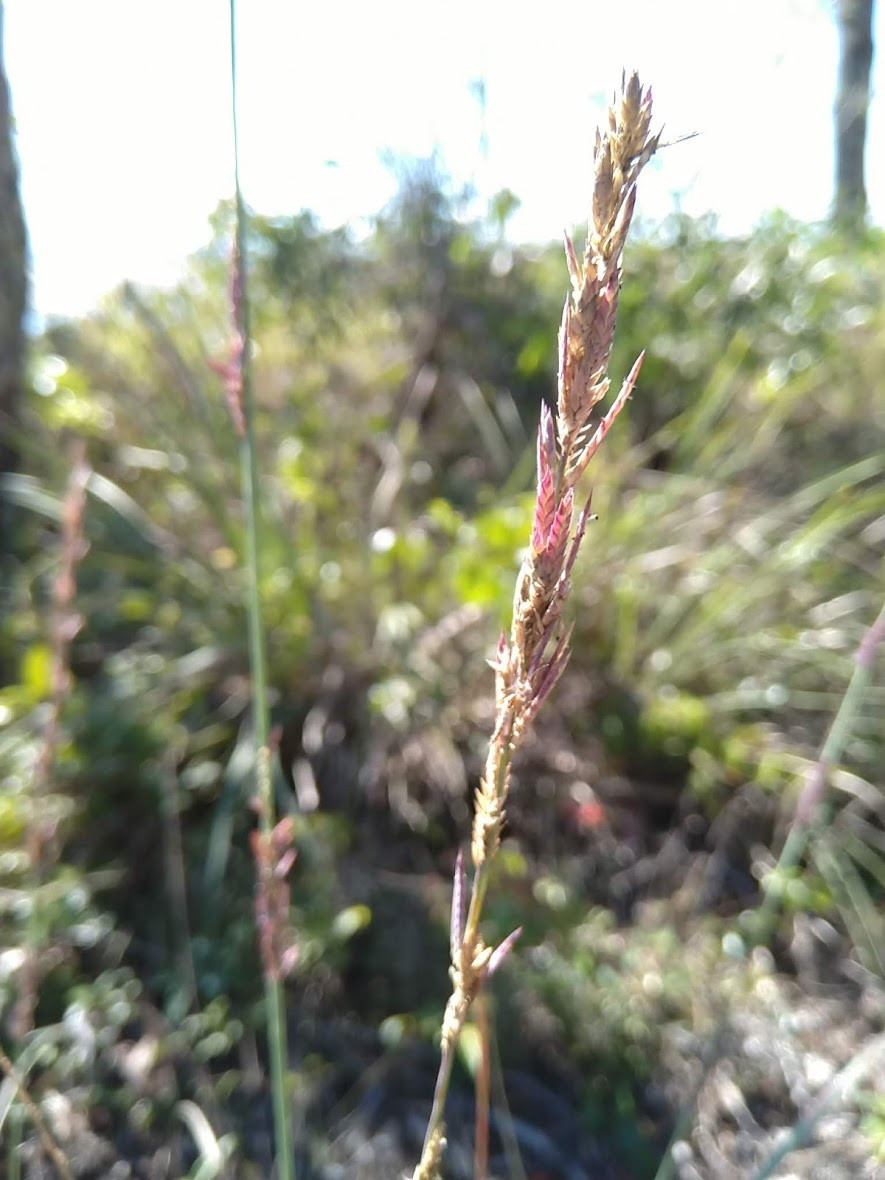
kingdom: Plantae
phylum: Tracheophyta
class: Liliopsida
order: Poales
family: Poaceae
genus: Eragrostis
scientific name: Eragrostis interrupta
